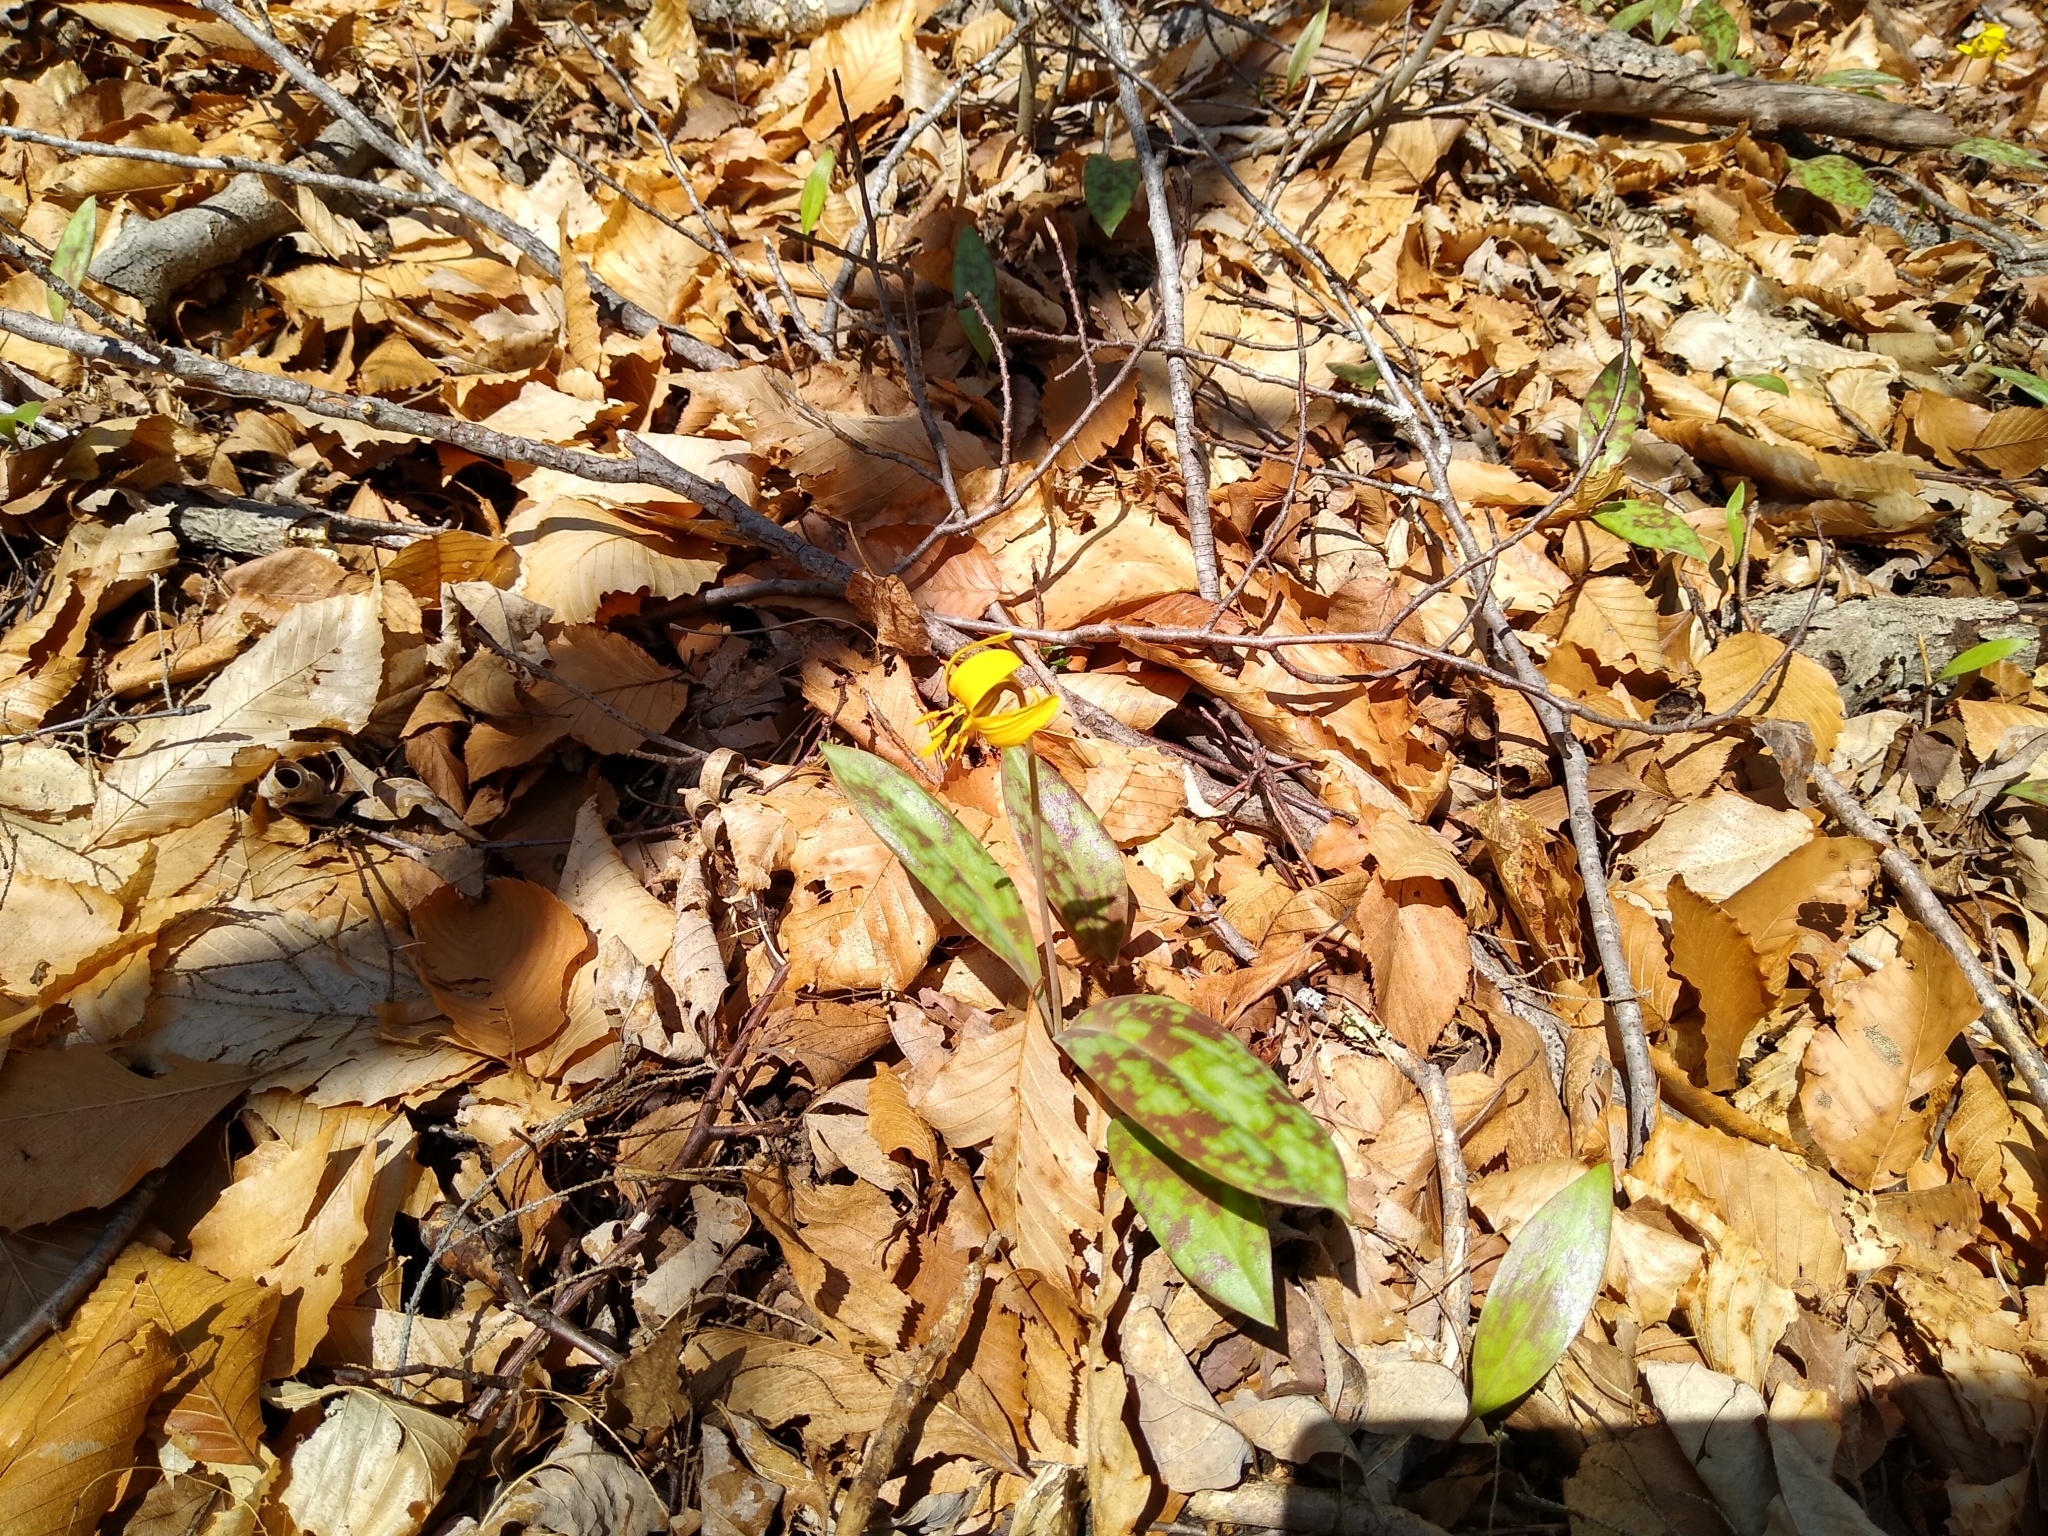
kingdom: Plantae
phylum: Tracheophyta
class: Liliopsida
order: Liliales
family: Liliaceae
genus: Erythronium
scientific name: Erythronium americanum
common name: Yellow adder's-tongue
